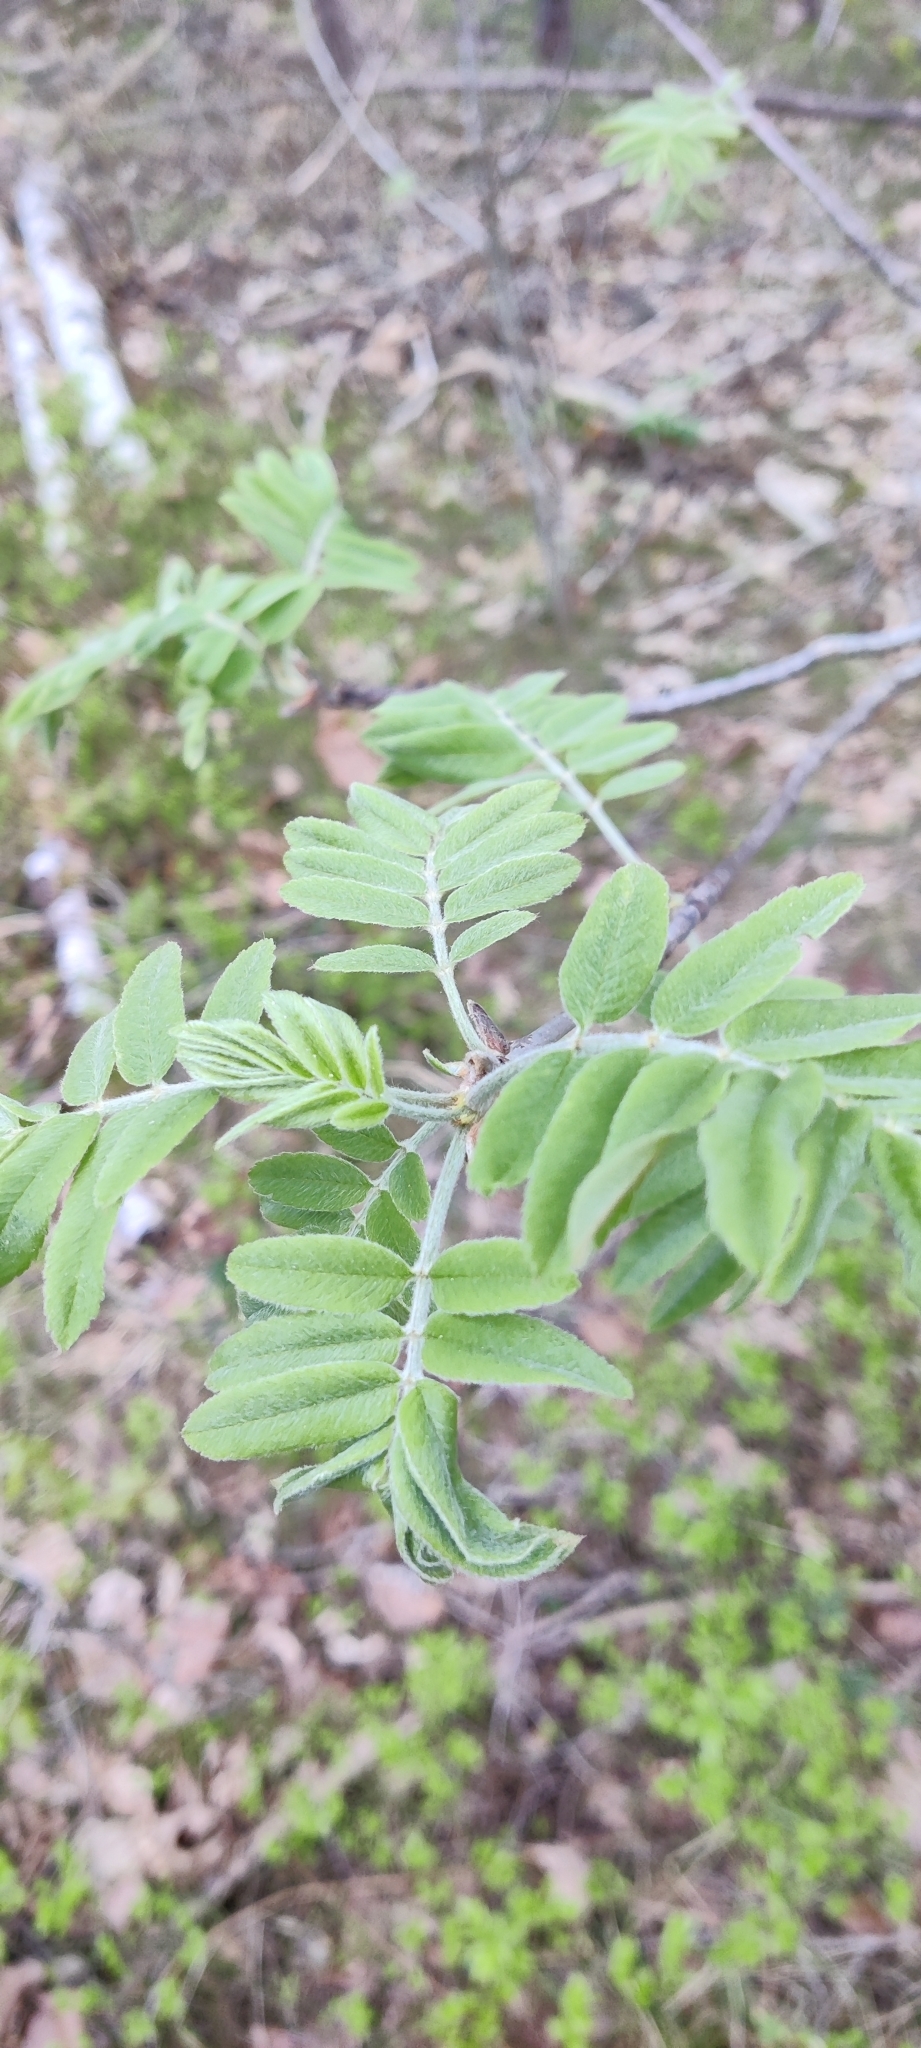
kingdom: Plantae
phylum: Tracheophyta
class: Magnoliopsida
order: Rosales
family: Rosaceae
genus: Sorbus
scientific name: Sorbus aucuparia
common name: Rowan
